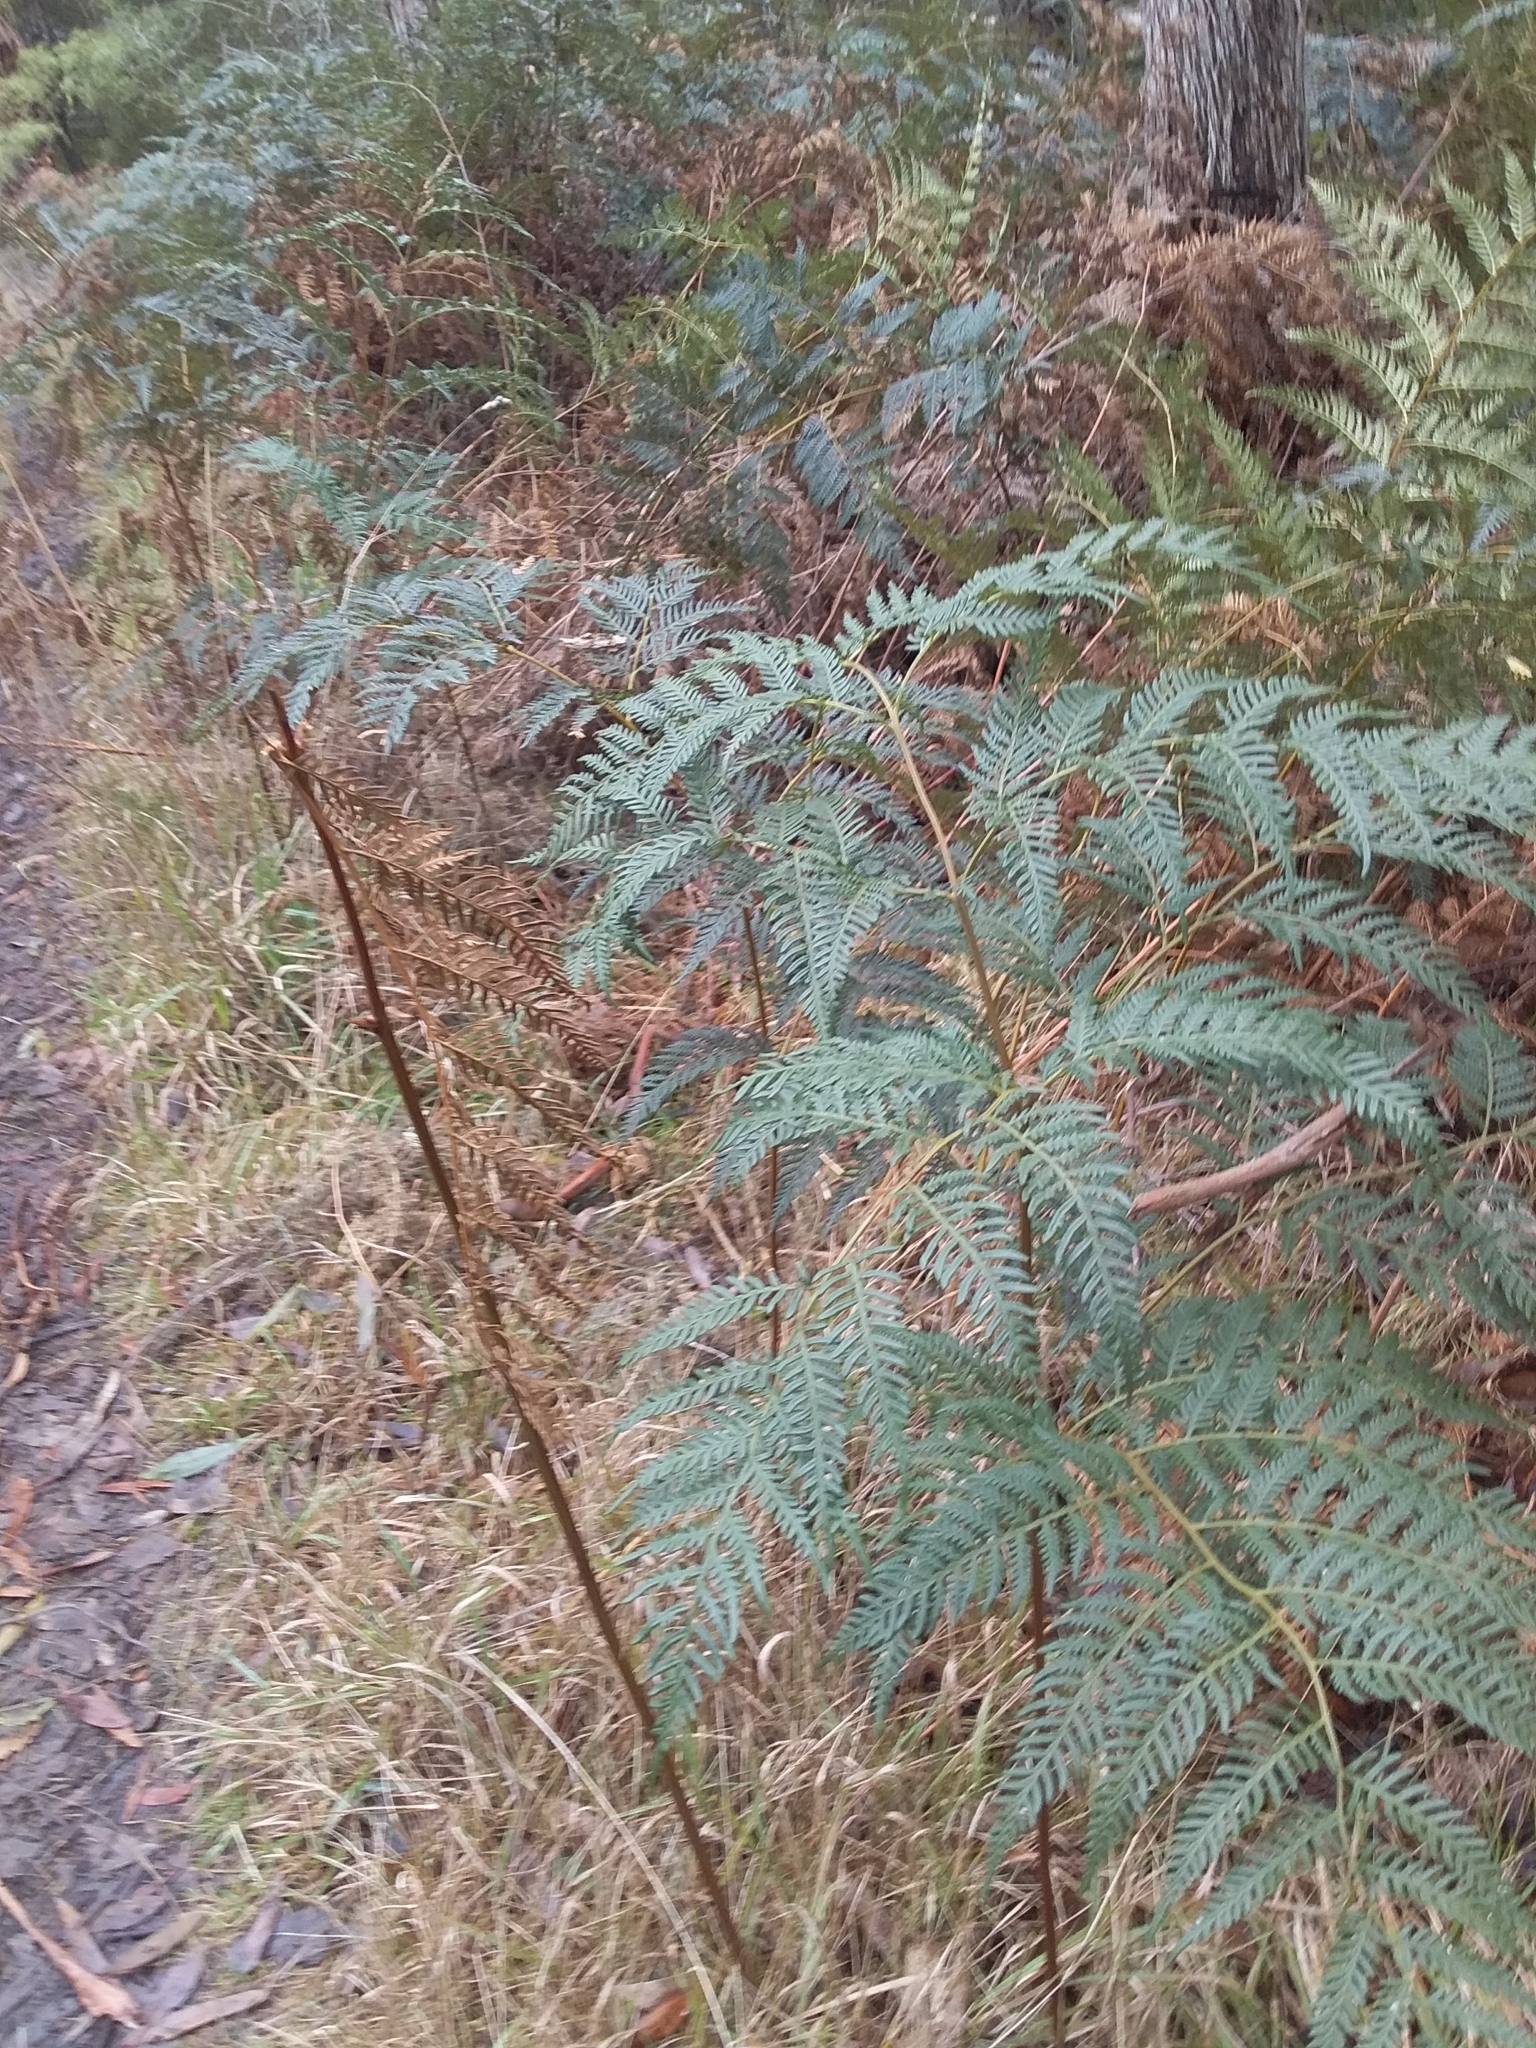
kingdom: Plantae
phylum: Tracheophyta
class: Polypodiopsida
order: Polypodiales
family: Dennstaedtiaceae
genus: Pteridium
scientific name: Pteridium esculentum
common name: Bracken fern
